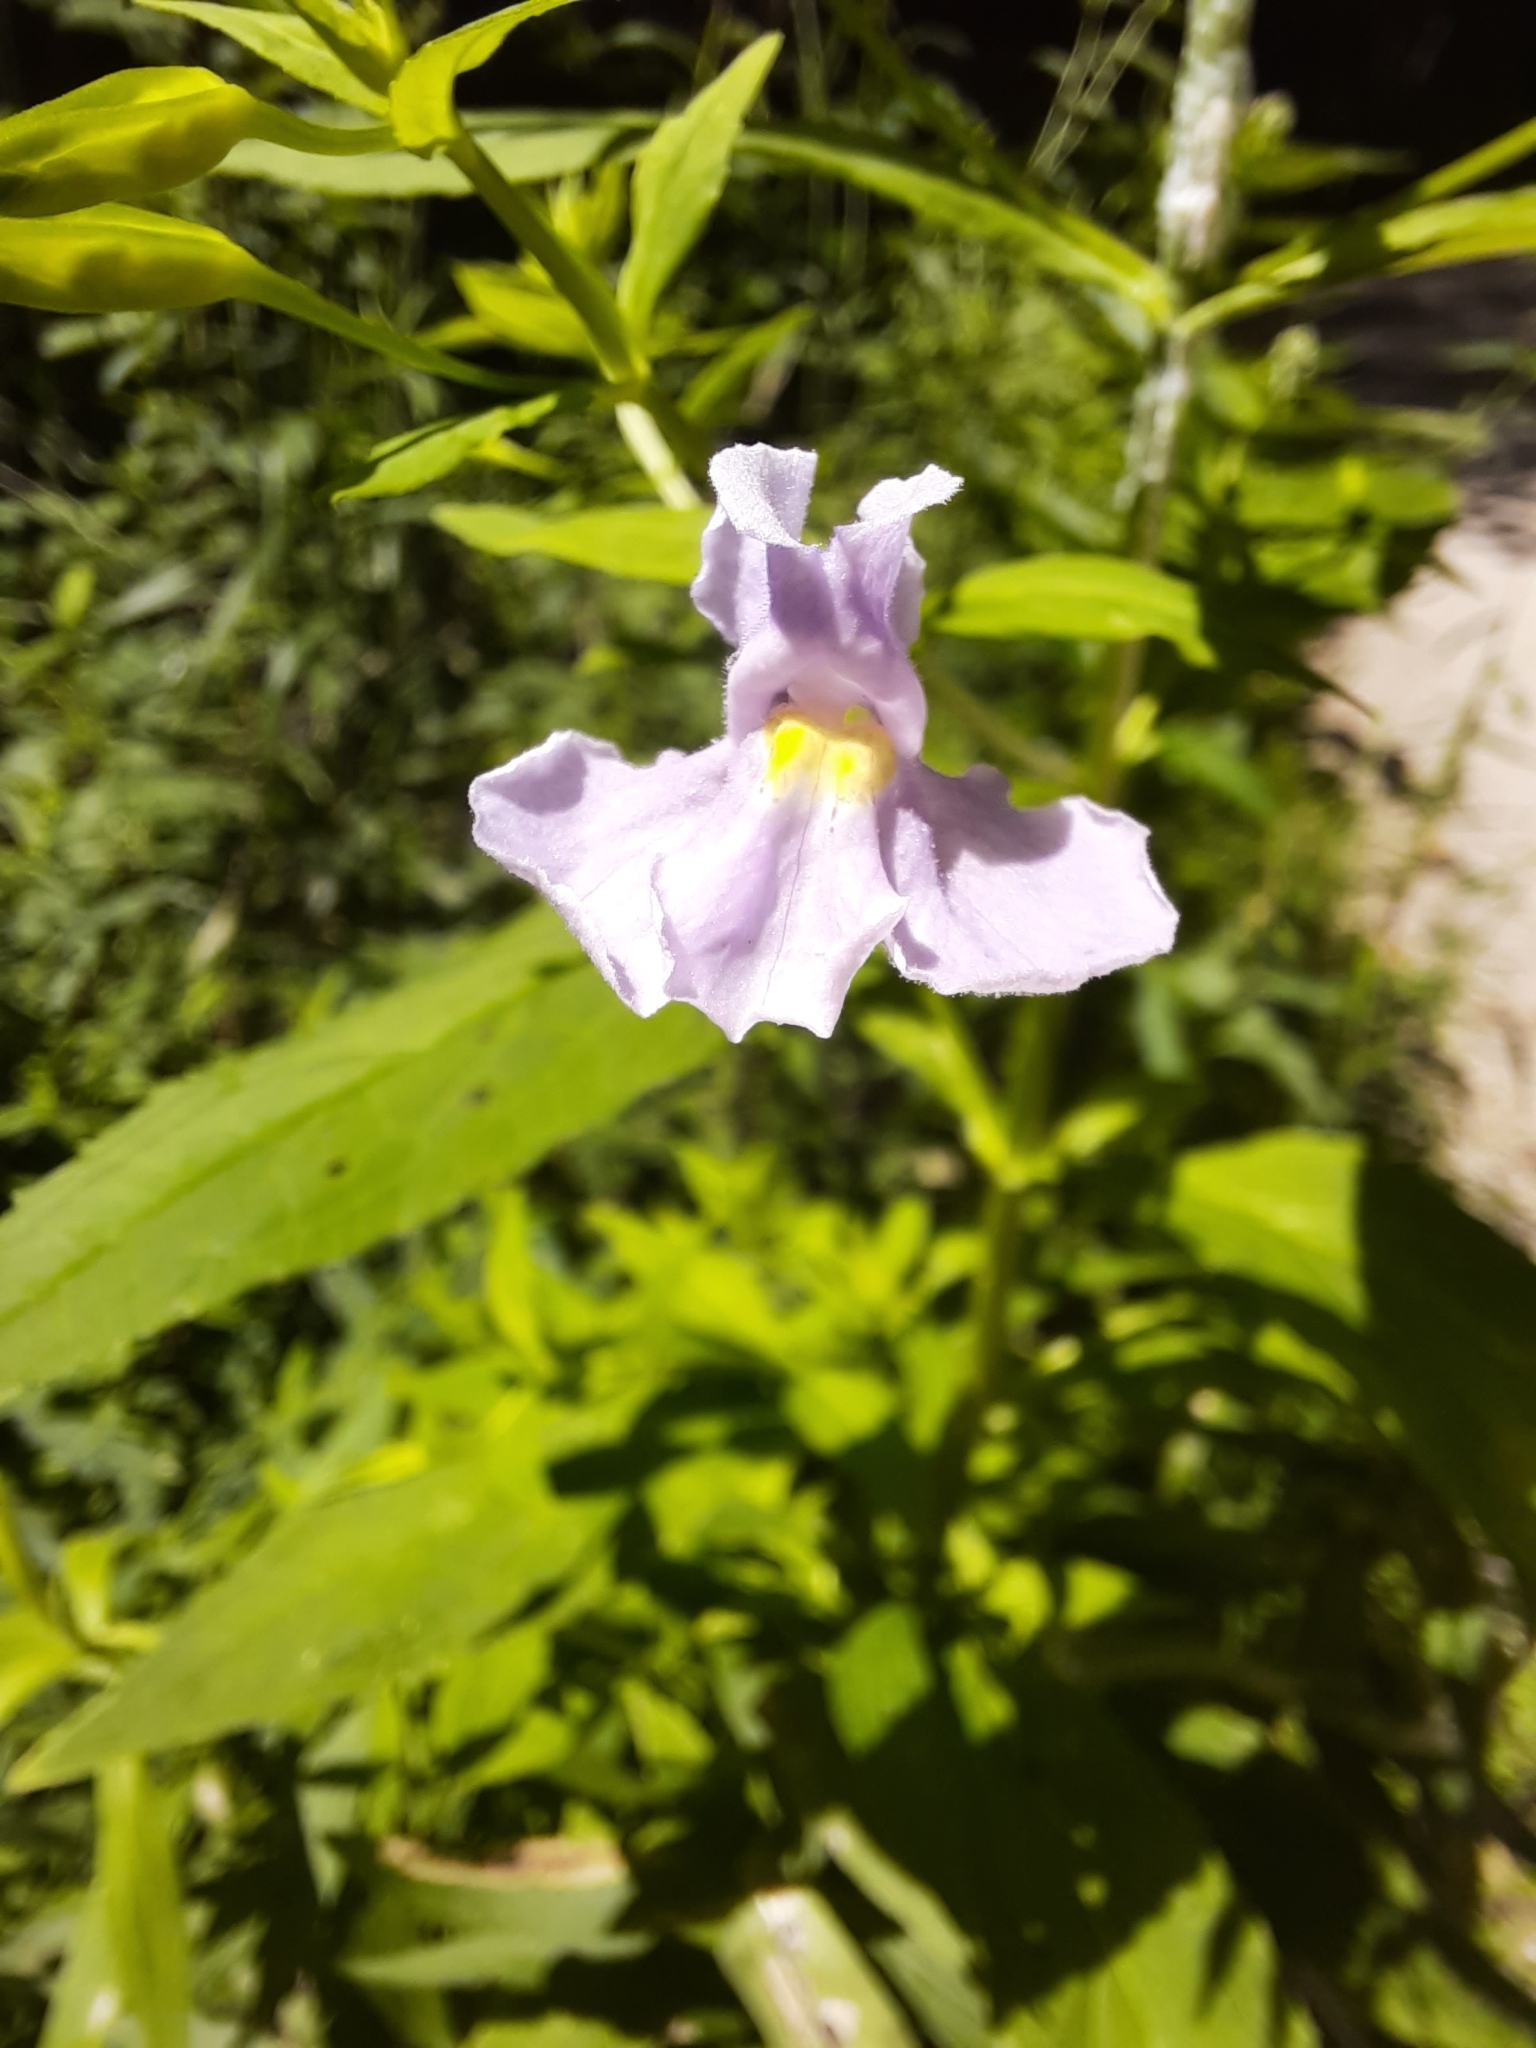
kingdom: Plantae
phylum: Tracheophyta
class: Magnoliopsida
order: Lamiales
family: Phrymaceae
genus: Mimulus
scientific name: Mimulus ringens
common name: Allegheny monkeyflower
